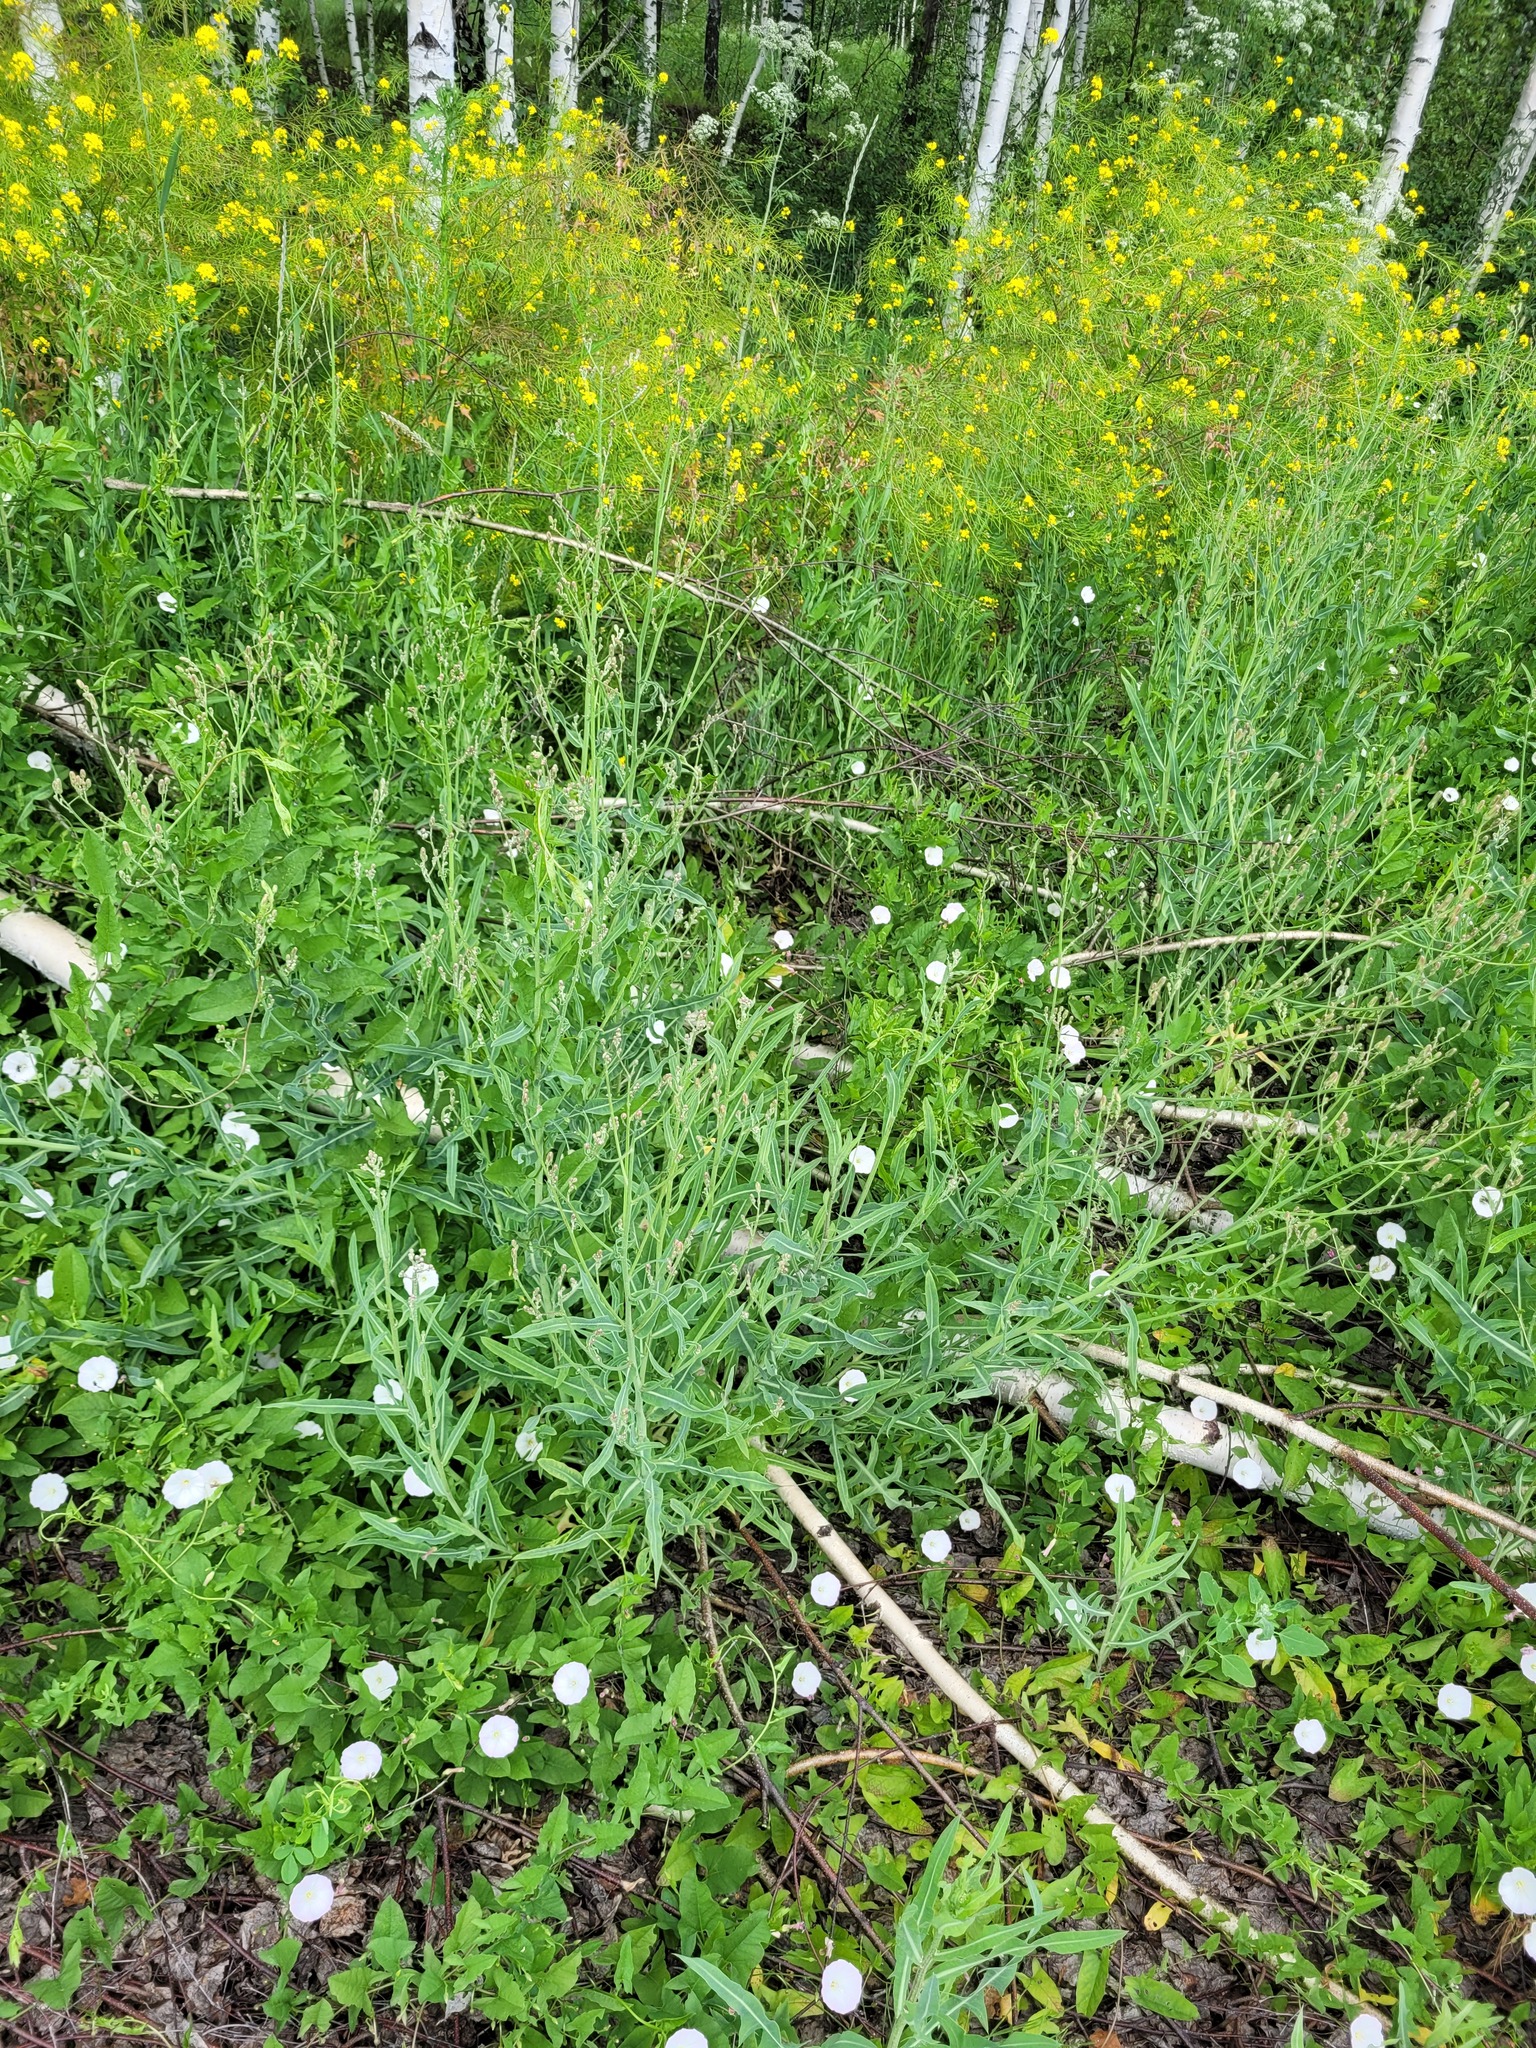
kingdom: Plantae
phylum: Tracheophyta
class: Magnoliopsida
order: Asterales
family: Asteraceae
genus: Lactuca
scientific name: Lactuca tatarica
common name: Blue lettuce
